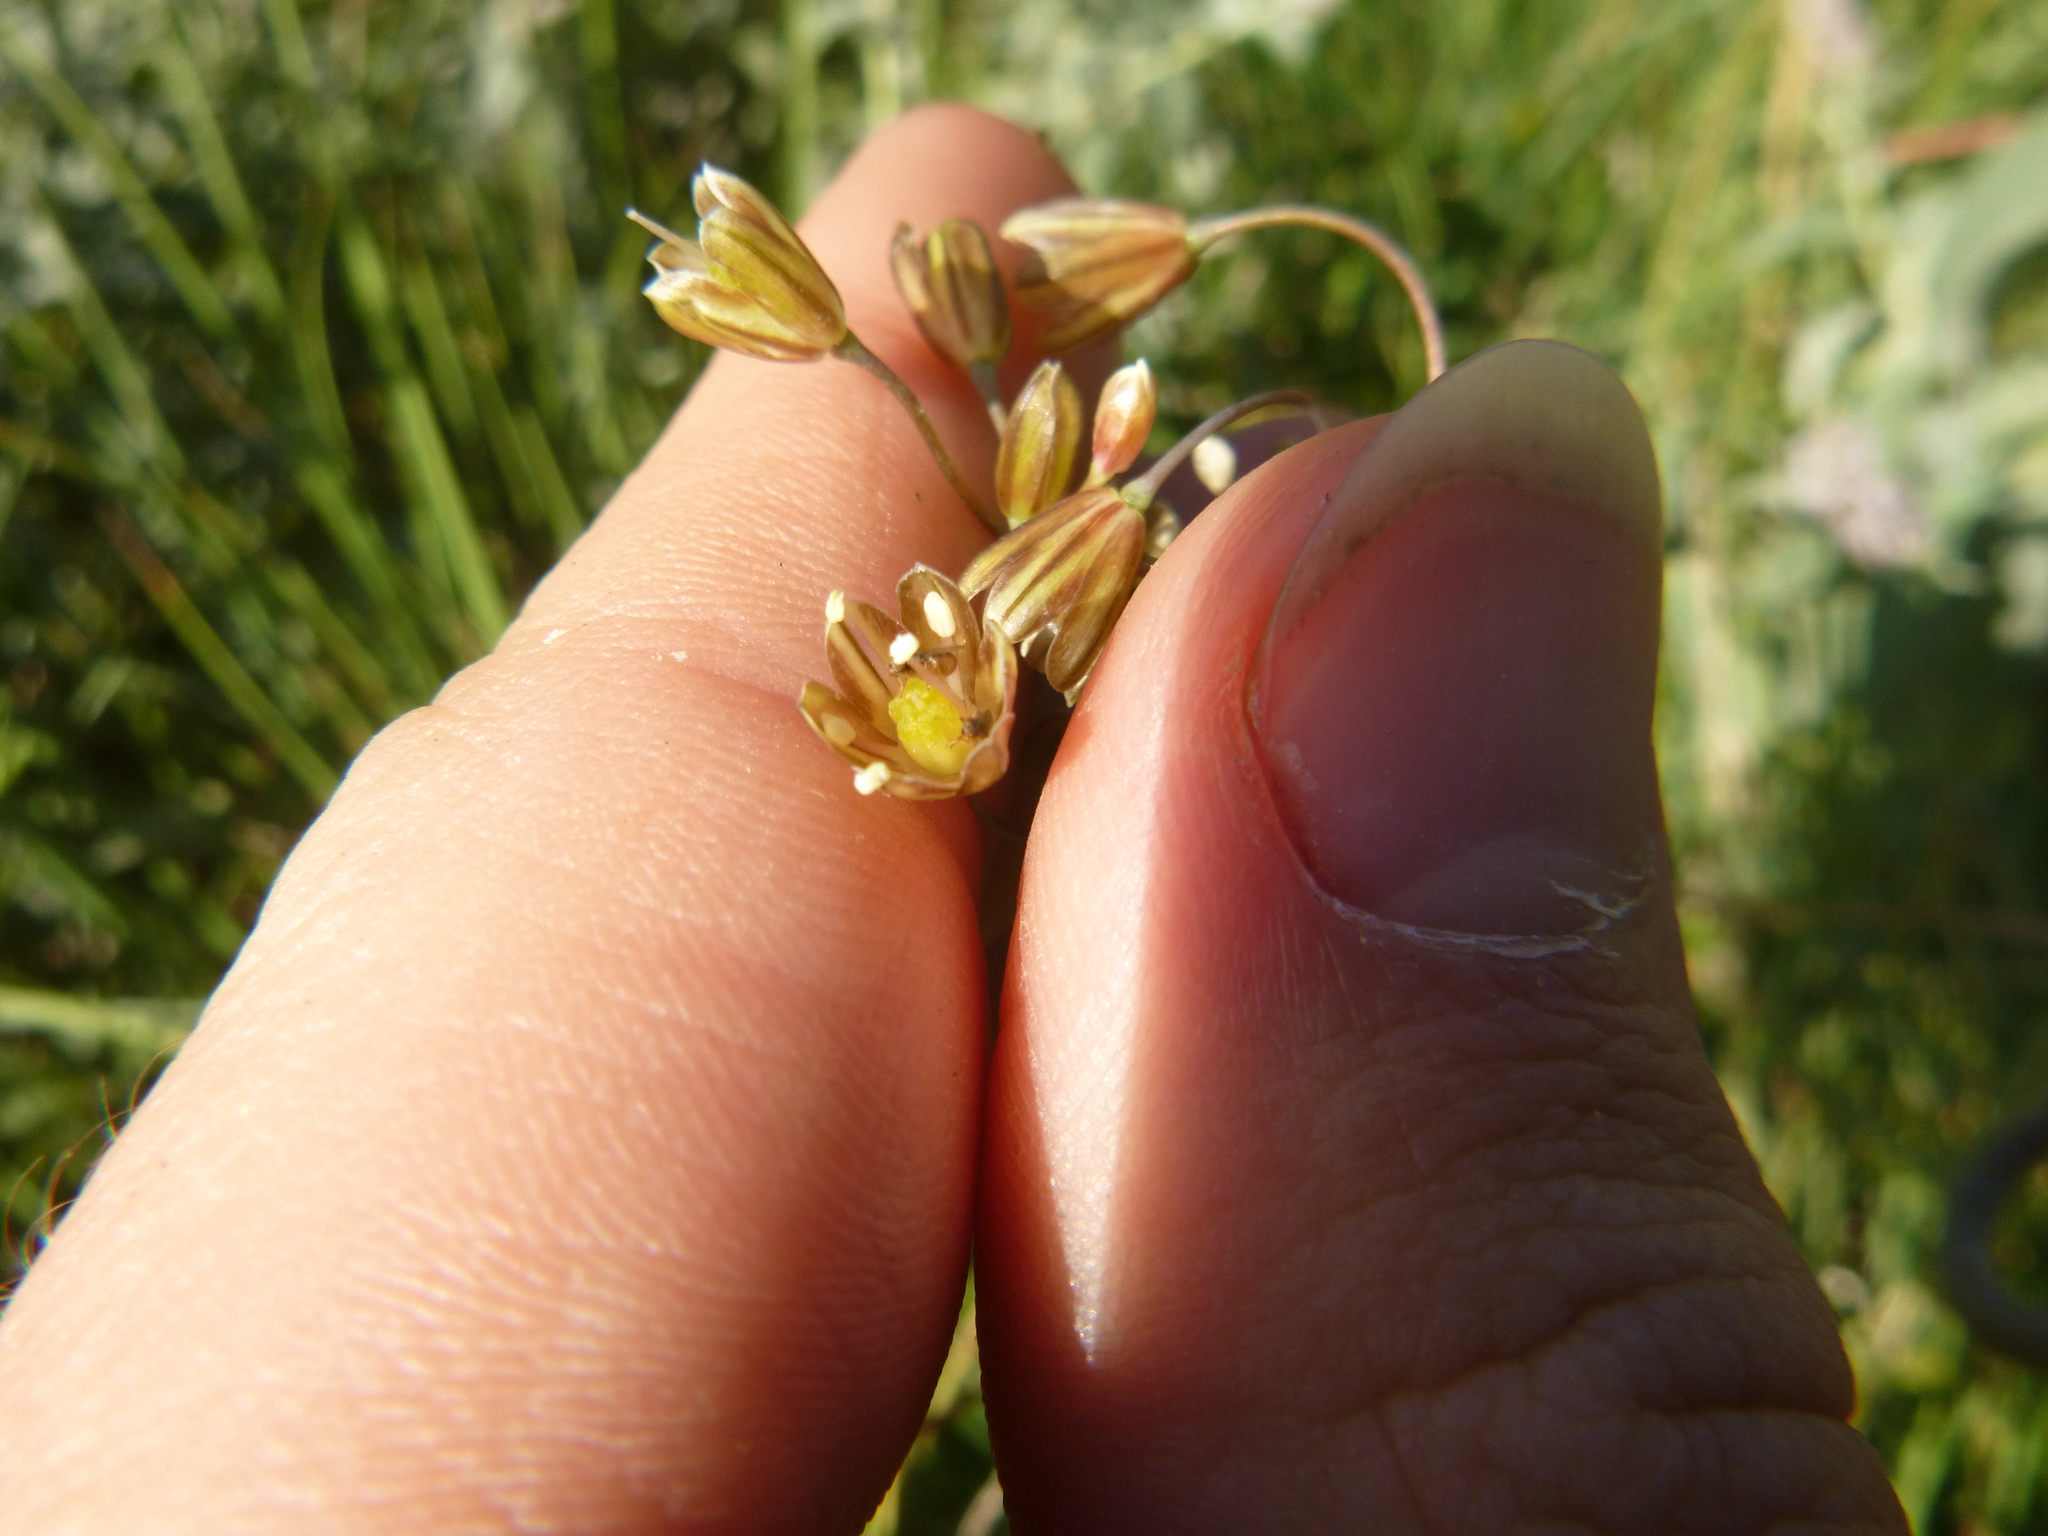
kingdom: Plantae
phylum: Tracheophyta
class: Liliopsida
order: Asparagales
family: Amaryllidaceae
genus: Allium
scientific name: Allium oleraceum
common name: Field garlic
